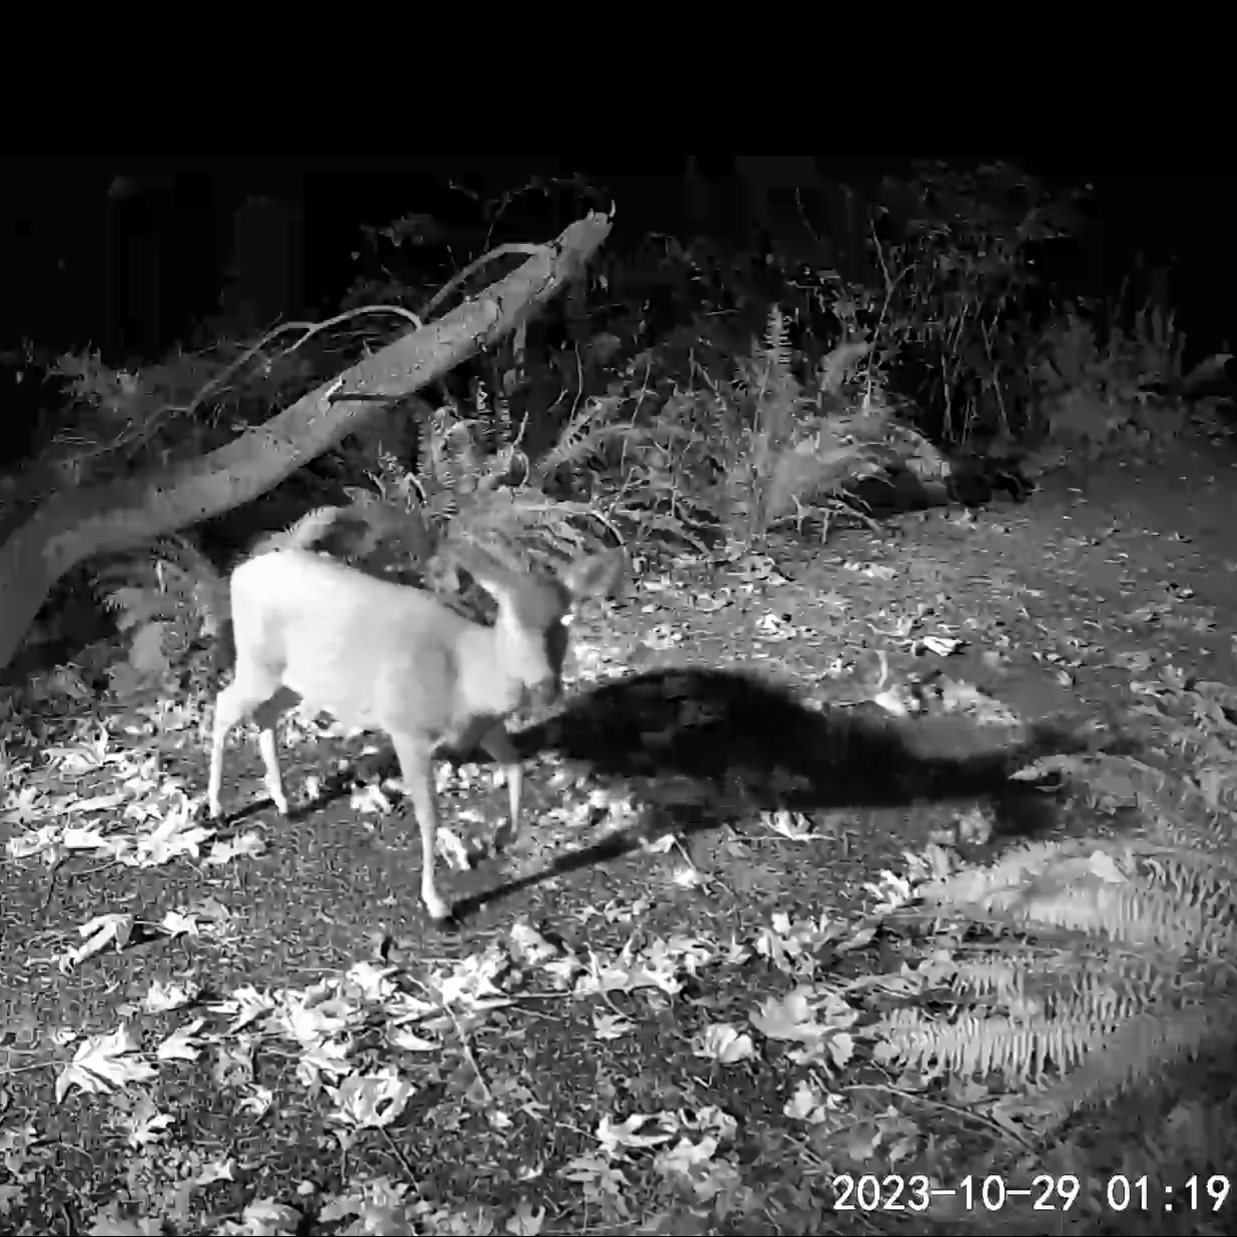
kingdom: Animalia
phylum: Chordata
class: Mammalia
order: Artiodactyla
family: Cervidae
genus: Odocoileus
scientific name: Odocoileus hemionus
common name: Mule deer
